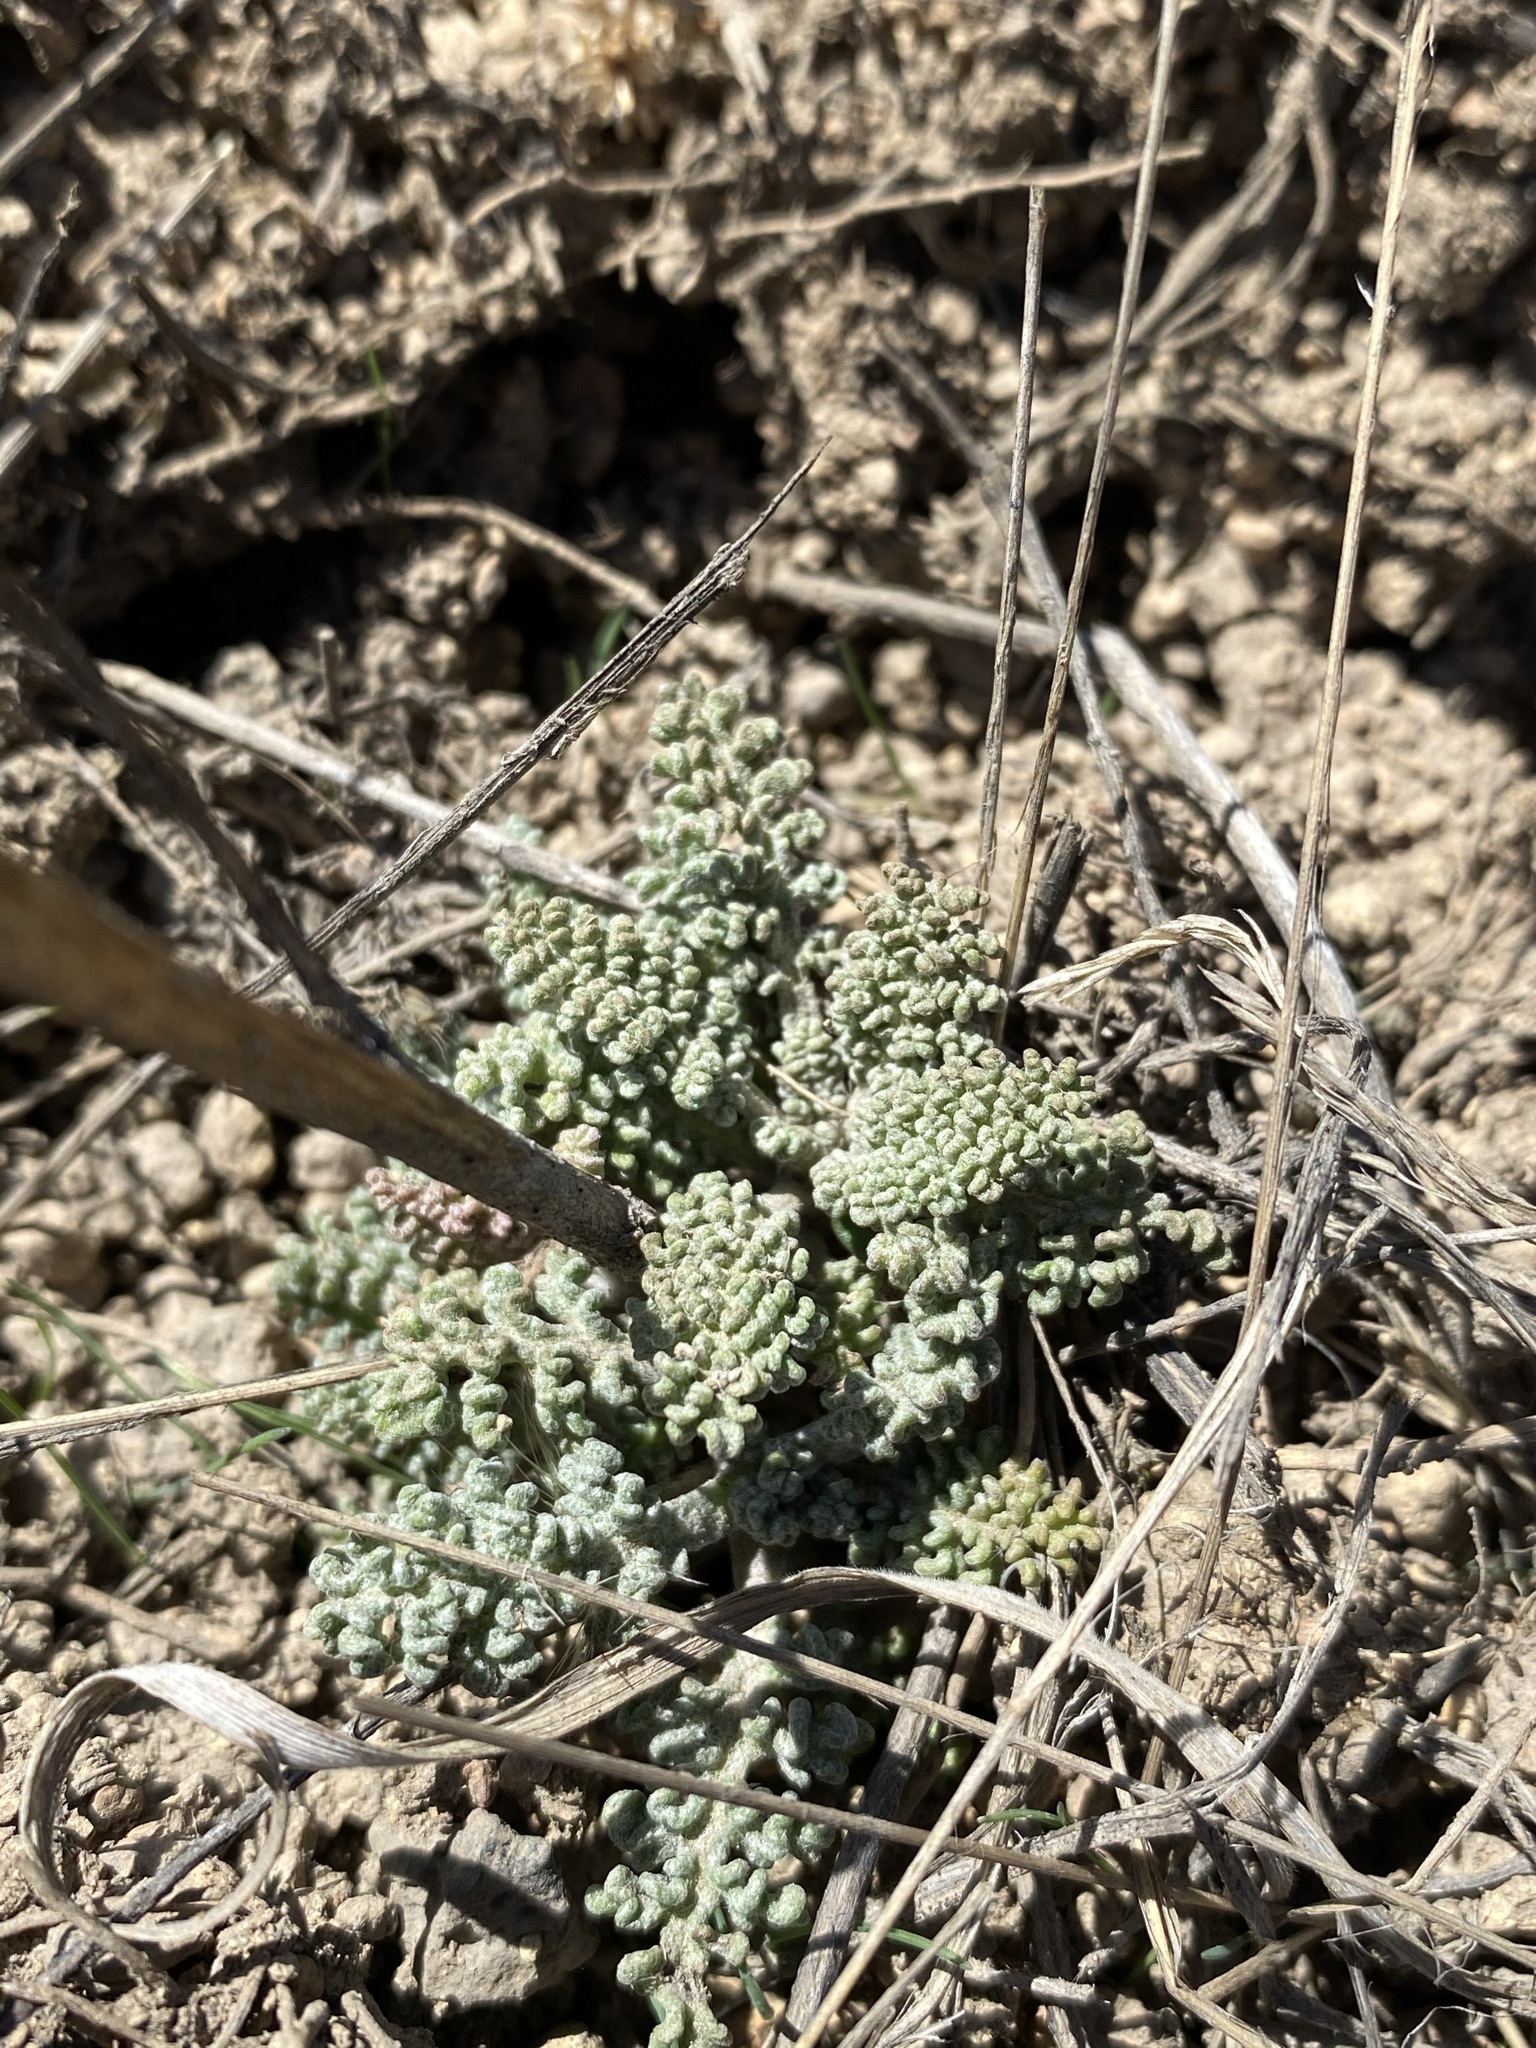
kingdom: Plantae
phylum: Tracheophyta
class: Magnoliopsida
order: Asterales
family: Asteraceae
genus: Chaenactis
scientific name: Chaenactis douglasii
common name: Hoary pincushion
